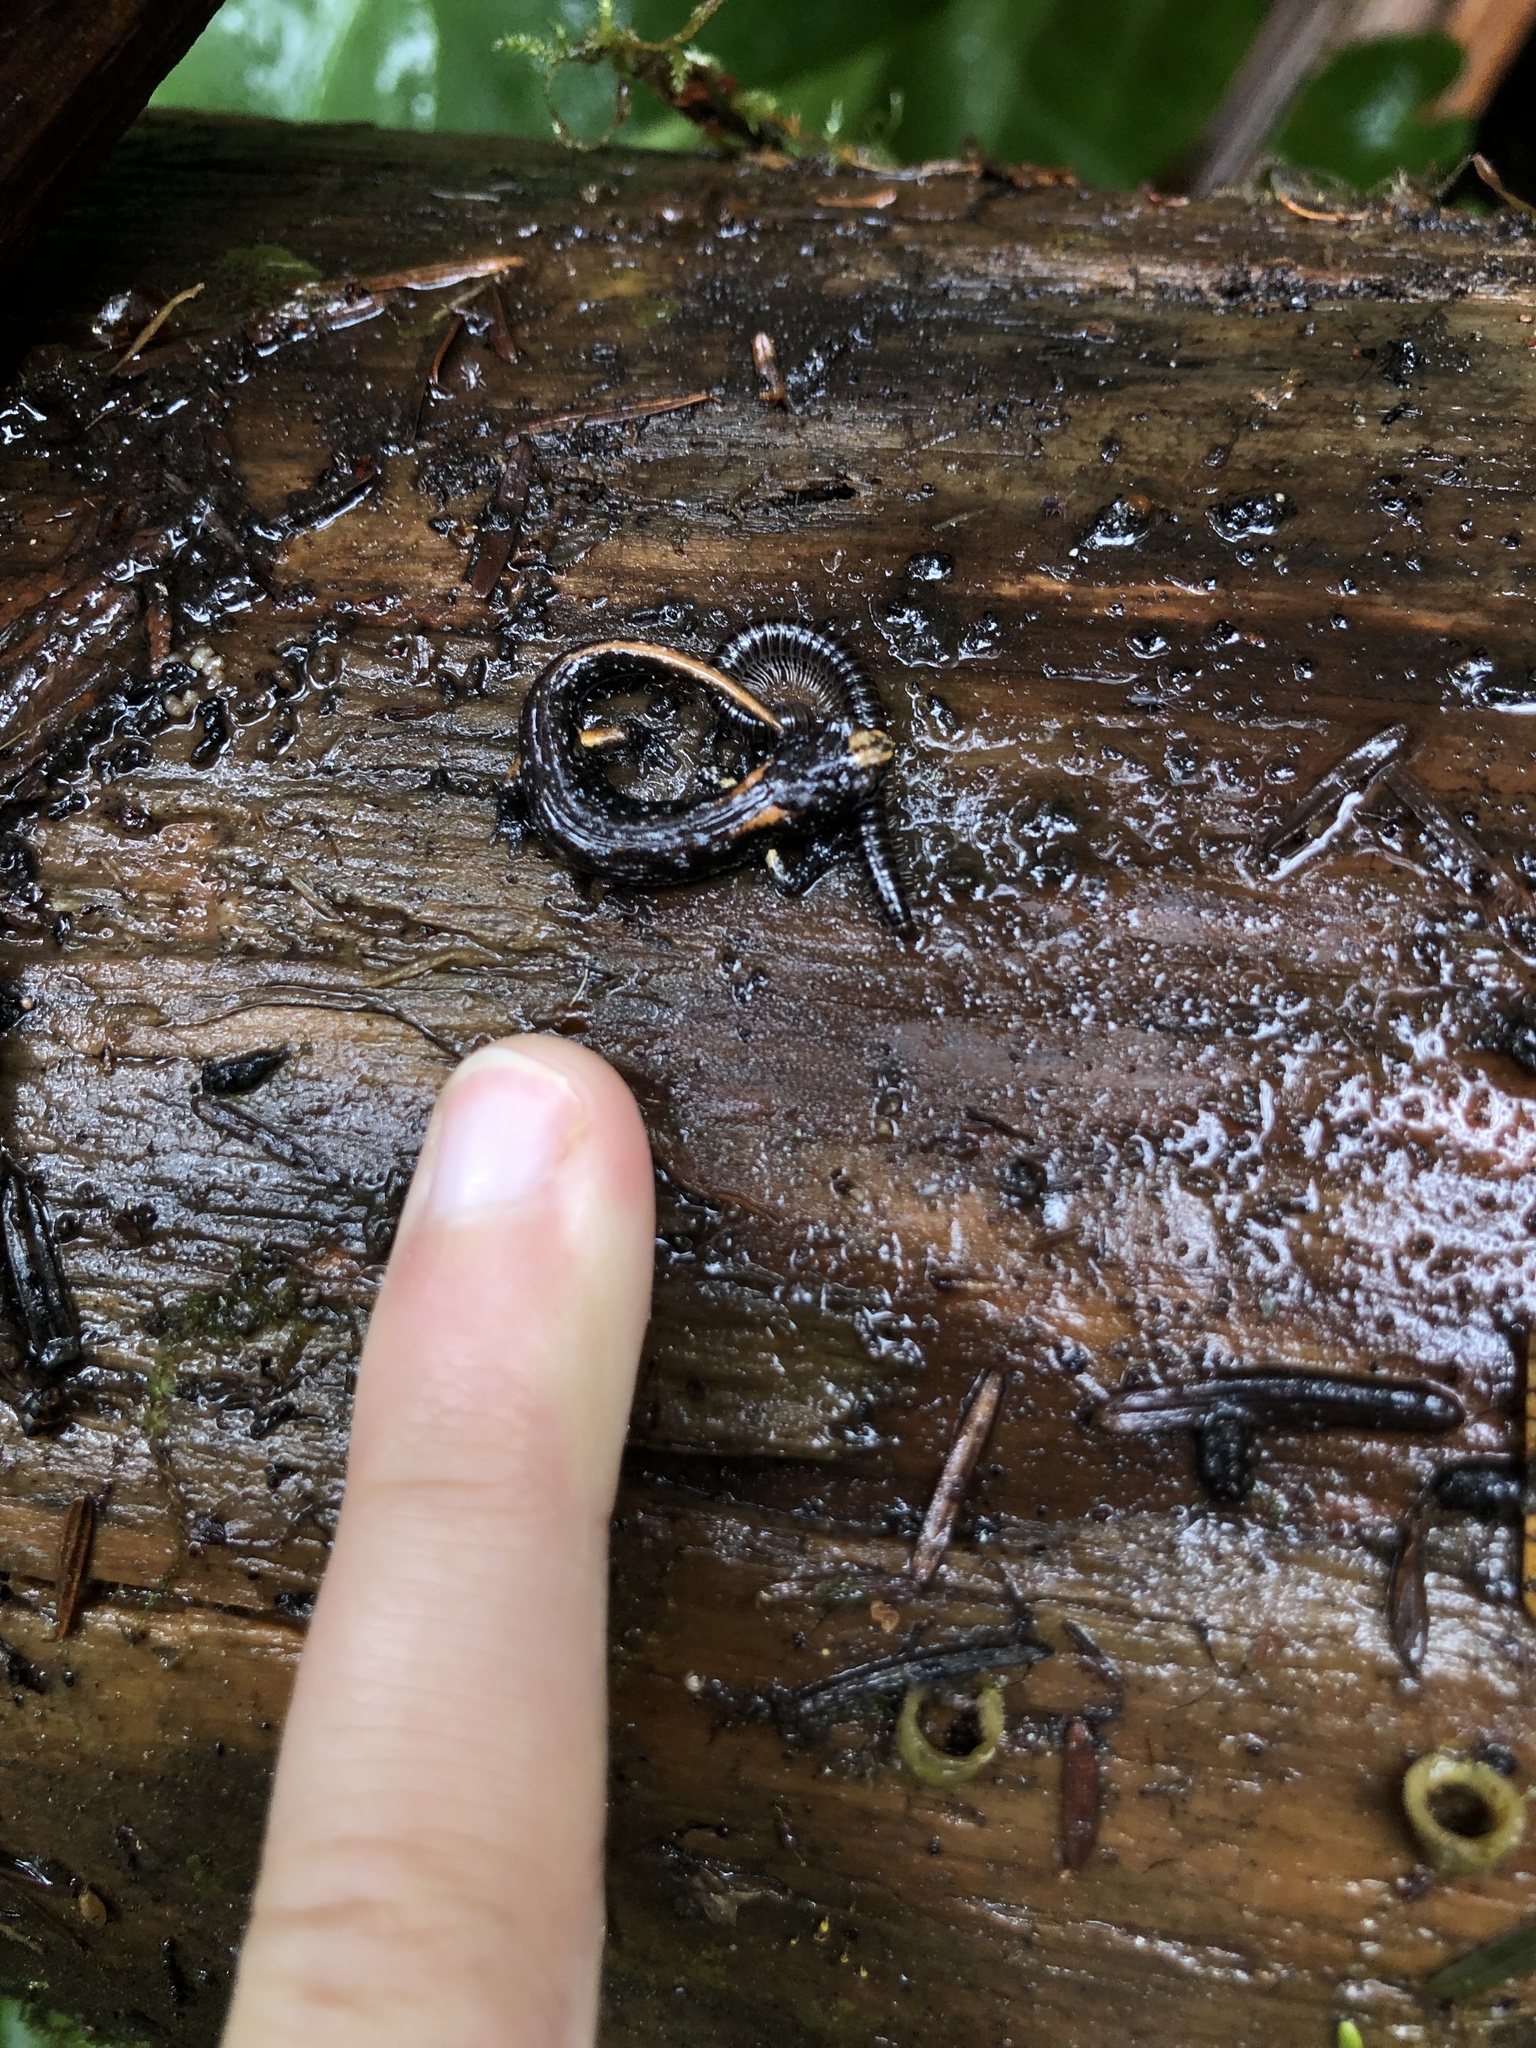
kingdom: Animalia
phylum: Chordata
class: Amphibia
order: Caudata
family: Plethodontidae
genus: Aneides
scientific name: Aneides vagrans
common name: Wandering salamander
